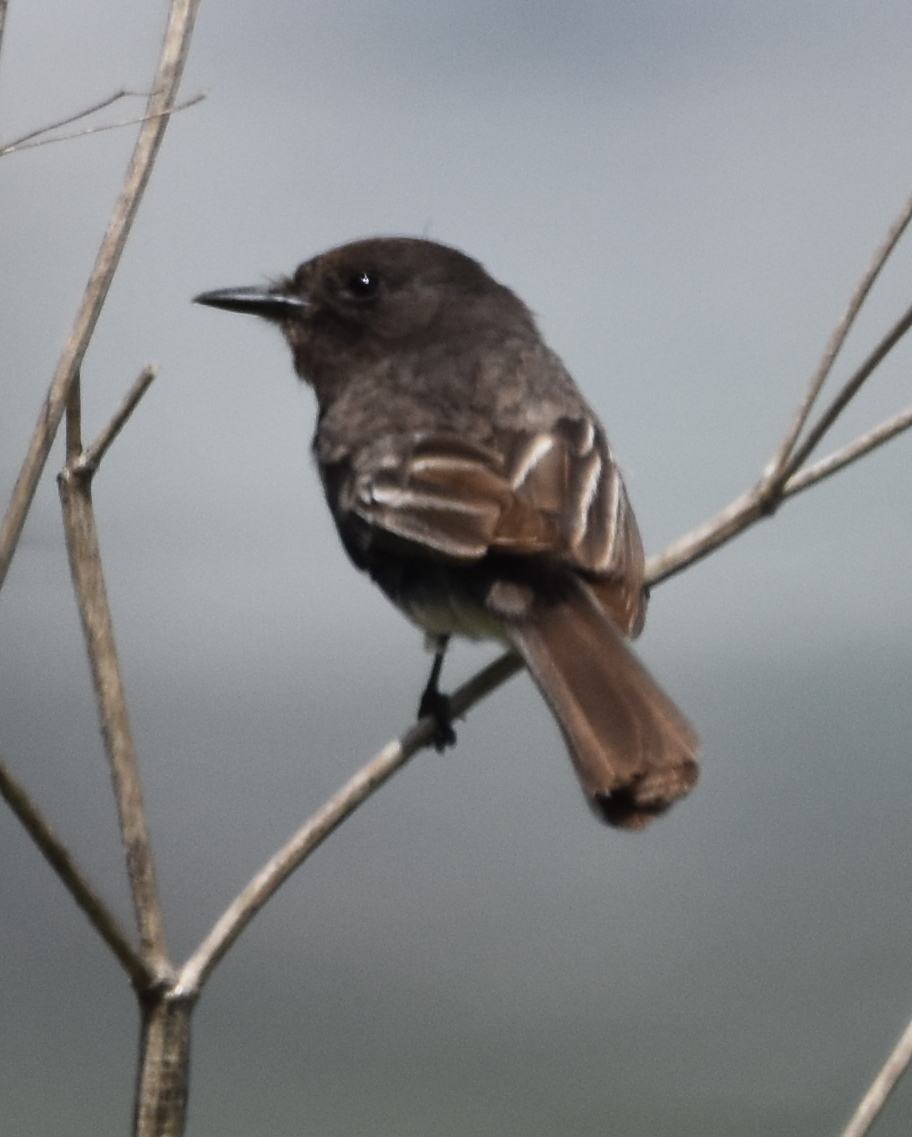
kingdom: Animalia
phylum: Chordata
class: Aves
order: Passeriformes
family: Tyrannidae
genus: Sayornis
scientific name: Sayornis nigricans
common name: Black phoebe
